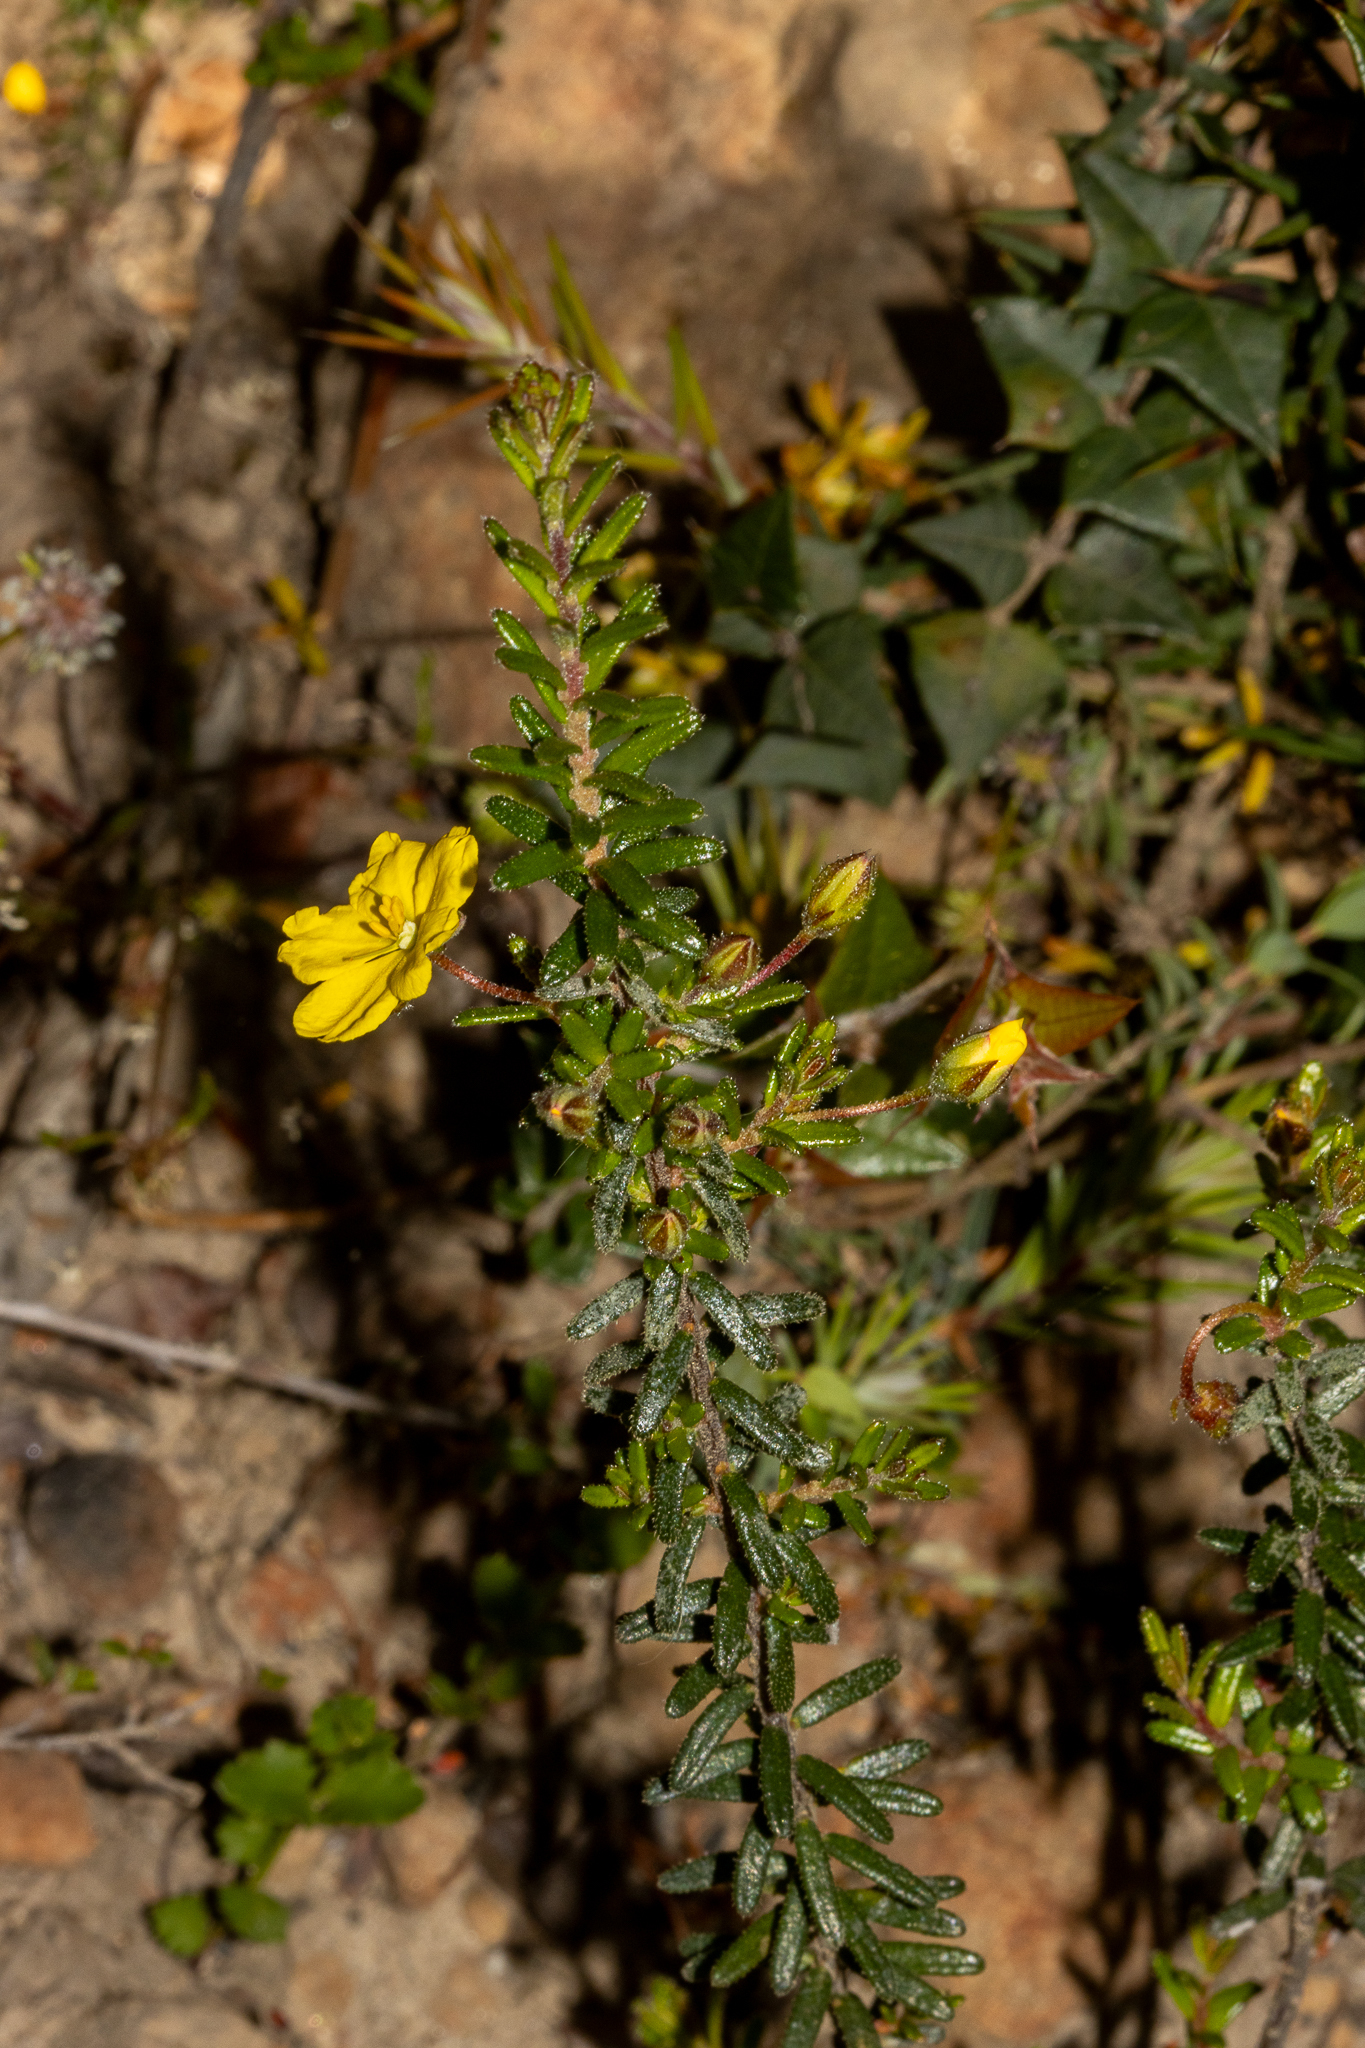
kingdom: Plantae
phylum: Tracheophyta
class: Magnoliopsida
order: Dilleniales
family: Dilleniaceae
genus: Hibbertia
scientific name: Hibbertia glebosa
